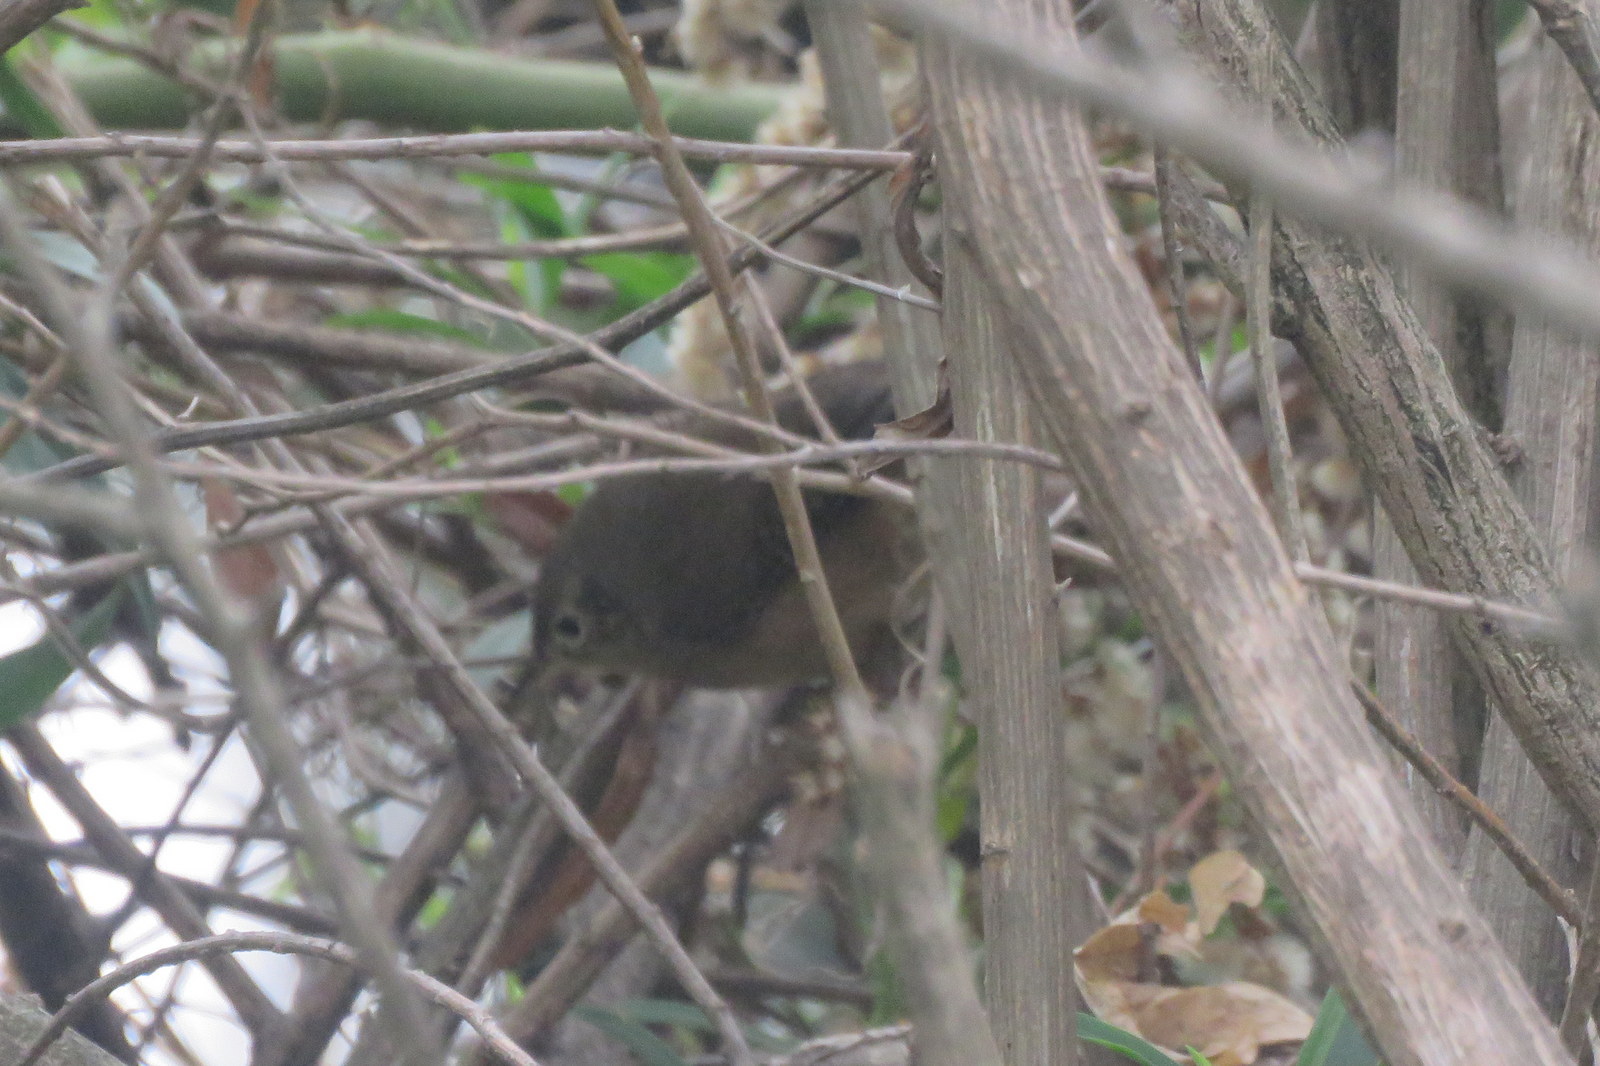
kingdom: Animalia
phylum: Chordata
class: Aves
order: Passeriformes
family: Troglodytidae
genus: Troglodytes
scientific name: Troglodytes aedon
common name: House wren
